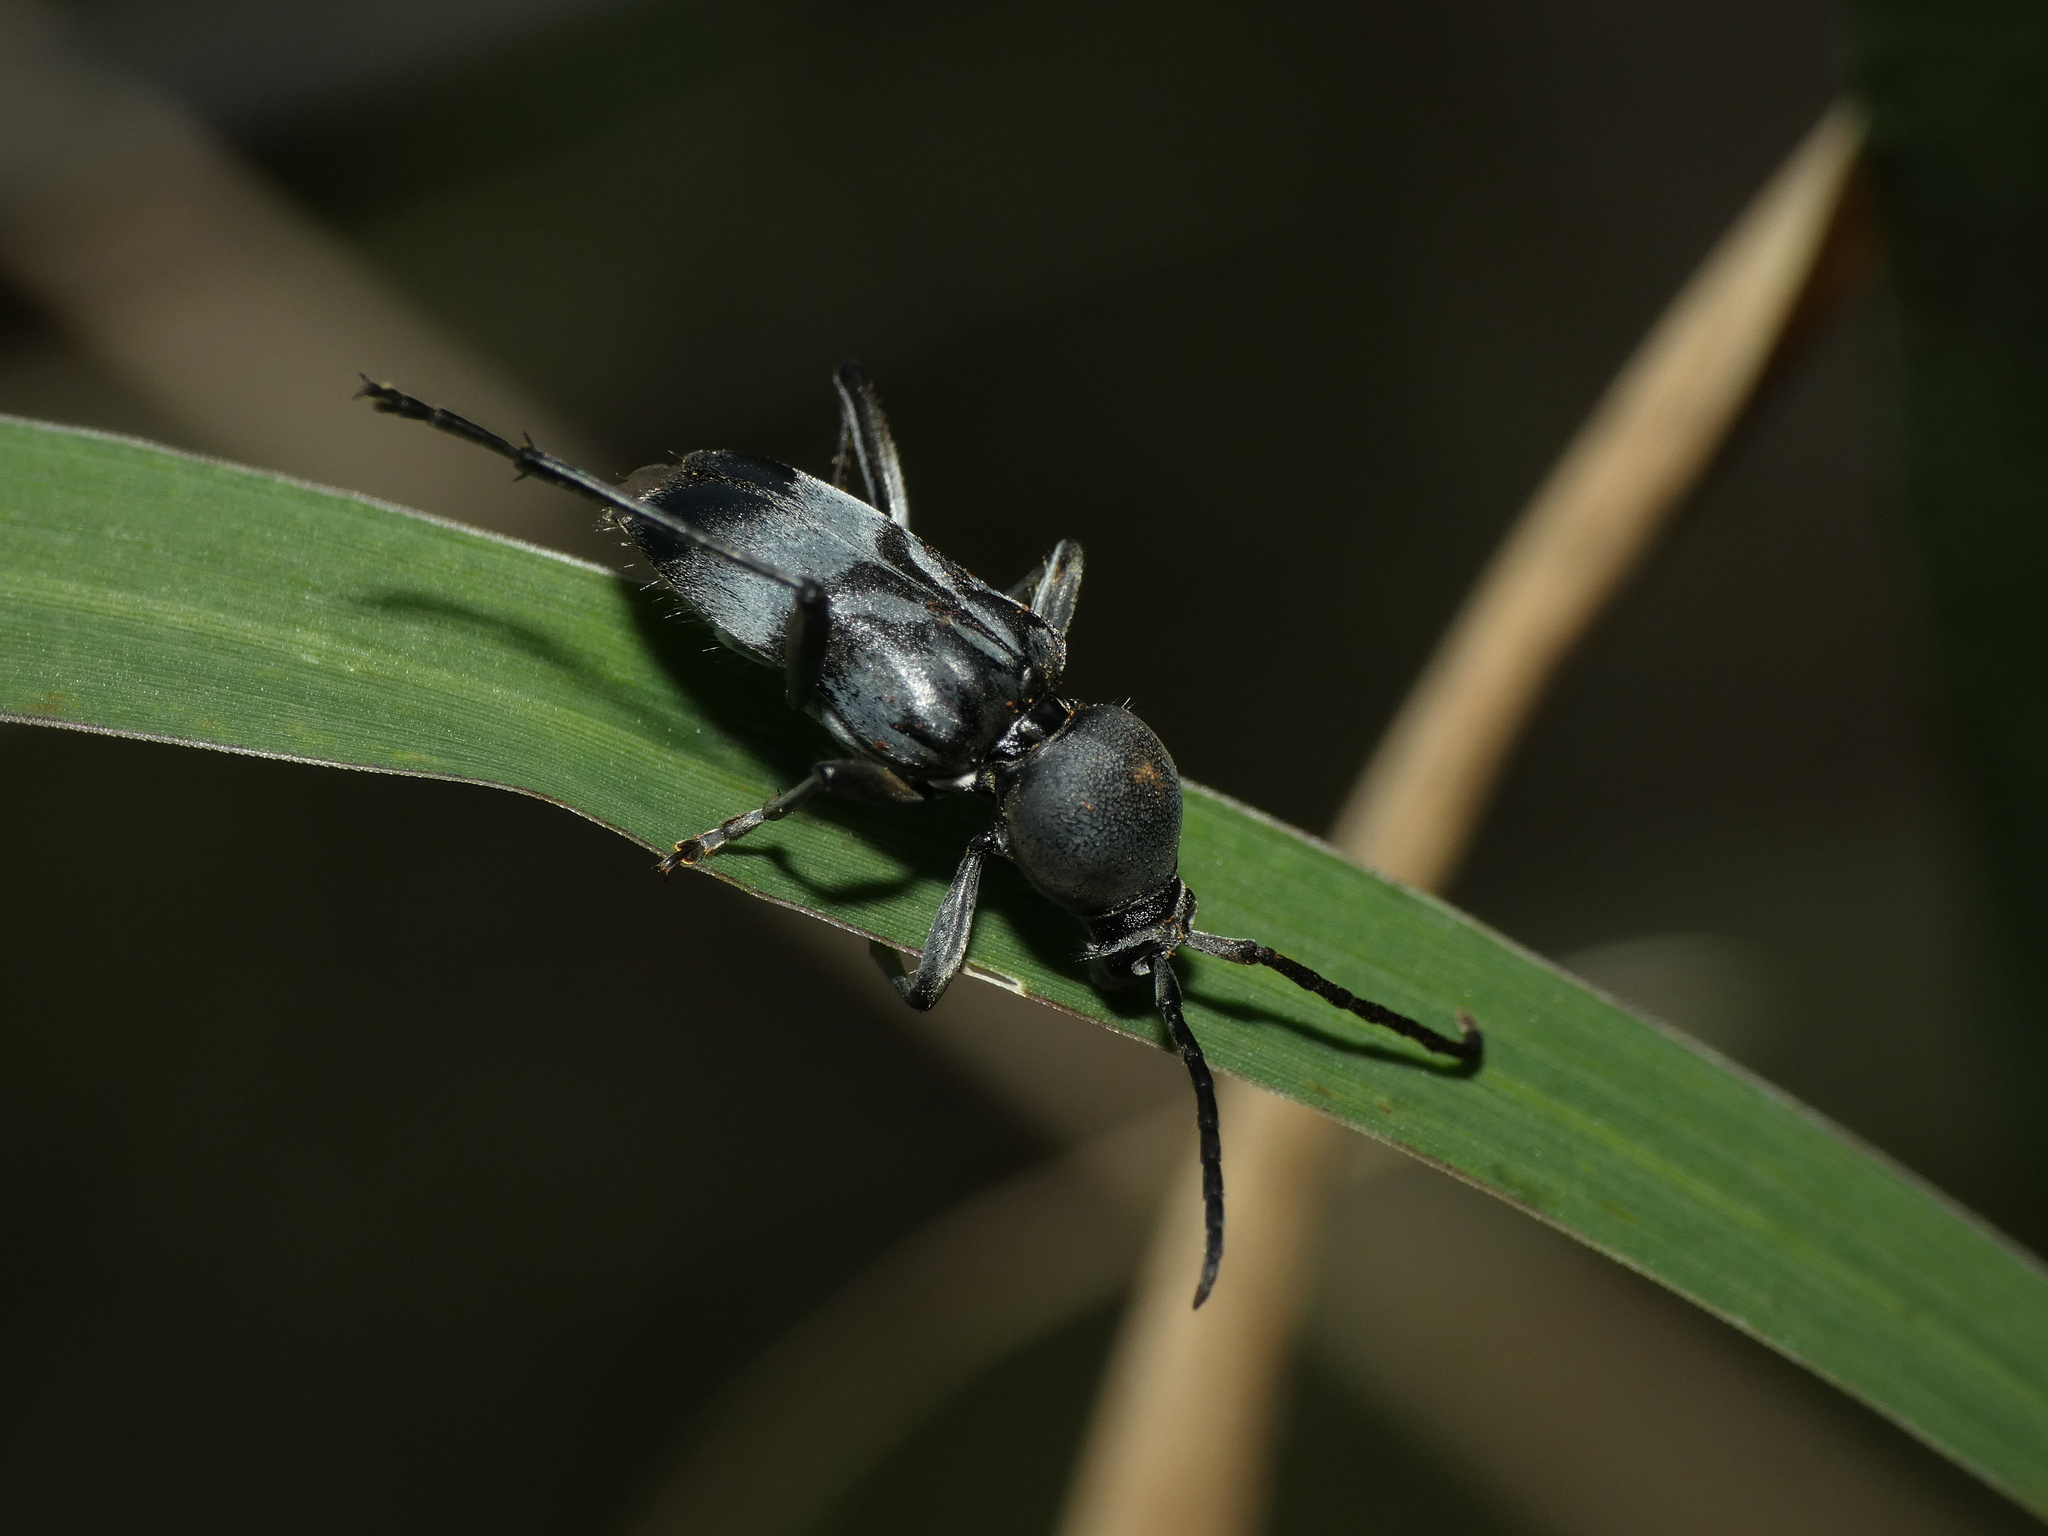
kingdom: Animalia
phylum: Arthropoda
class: Insecta
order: Coleoptera
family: Cerambycidae
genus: Plagionotulus
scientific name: Plagionotulus westringii
